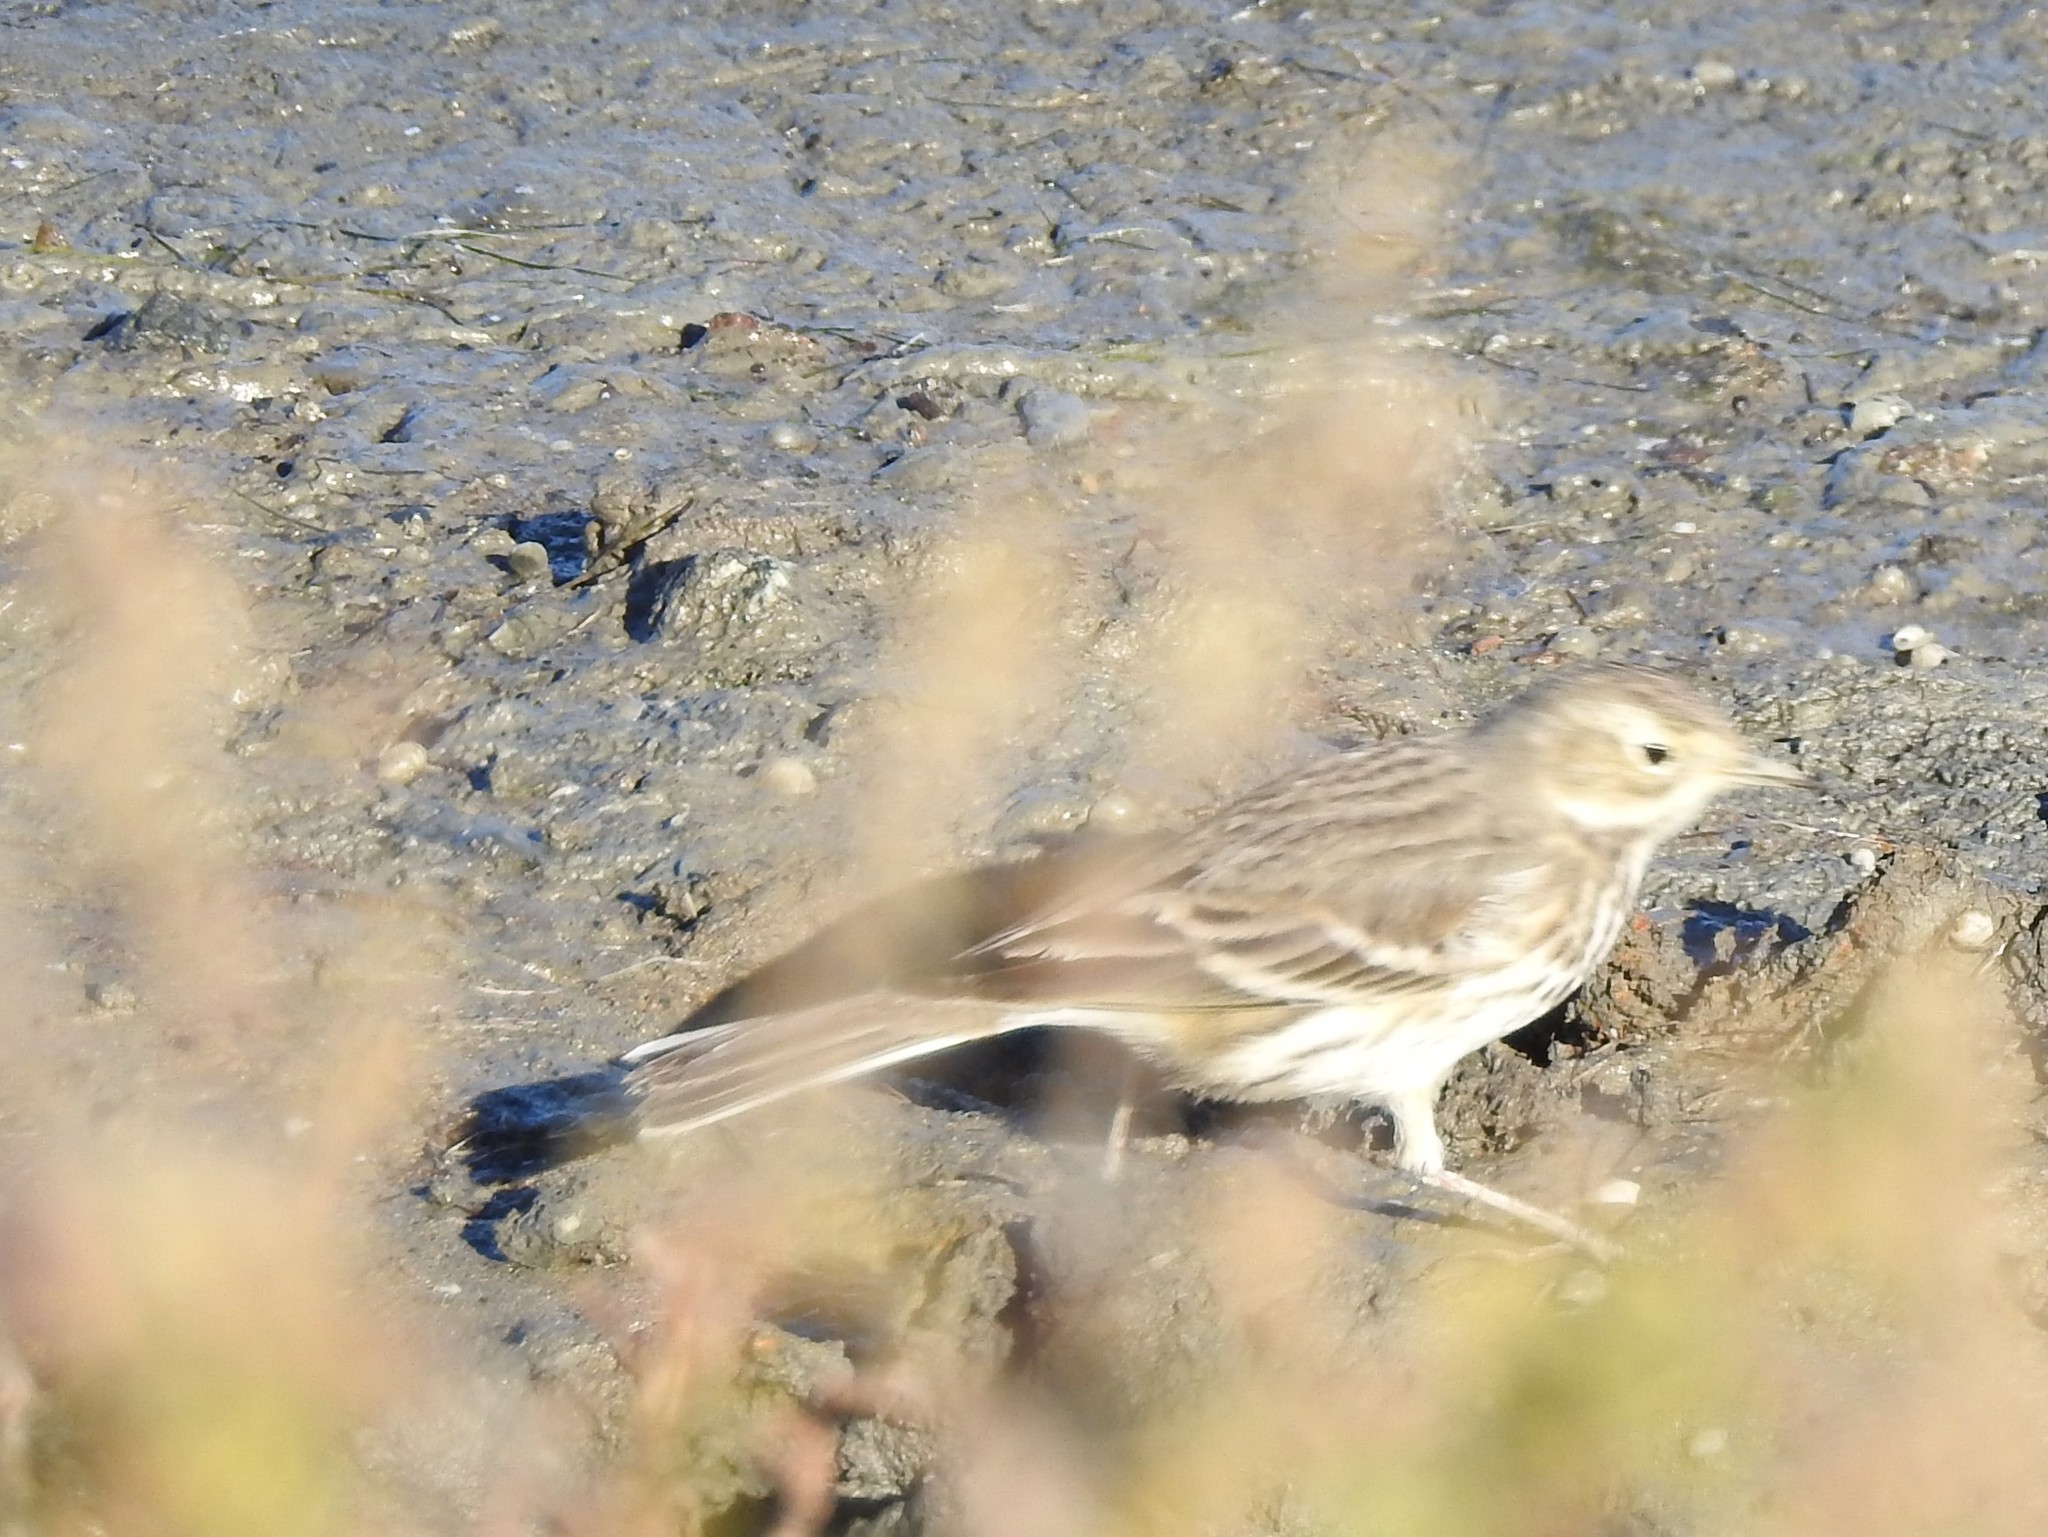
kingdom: Animalia
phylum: Chordata
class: Aves
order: Passeriformes
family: Motacillidae
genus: Anthus
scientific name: Anthus rubescens
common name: Buff-bellied pipit
